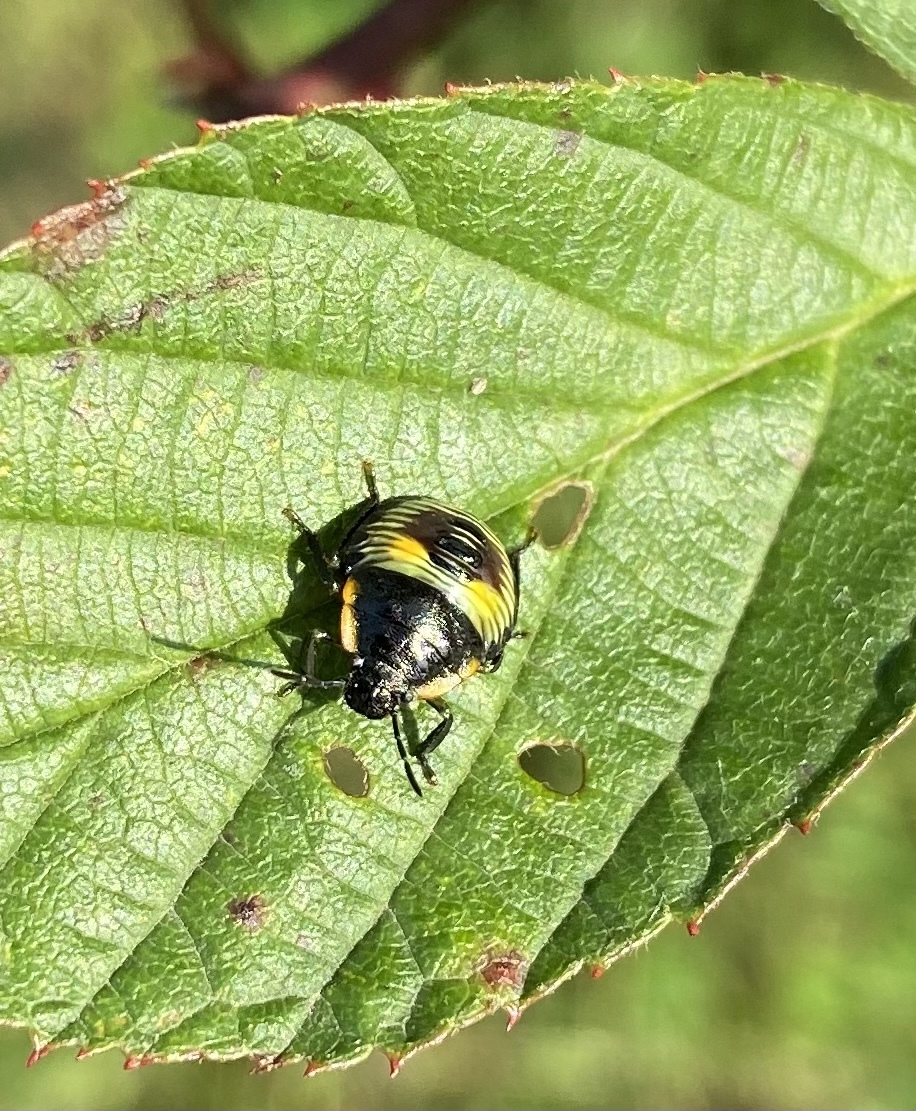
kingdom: Animalia
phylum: Arthropoda
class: Insecta
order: Hemiptera
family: Pentatomidae
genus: Chinavia
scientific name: Chinavia hilaris
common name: Green stink bug
